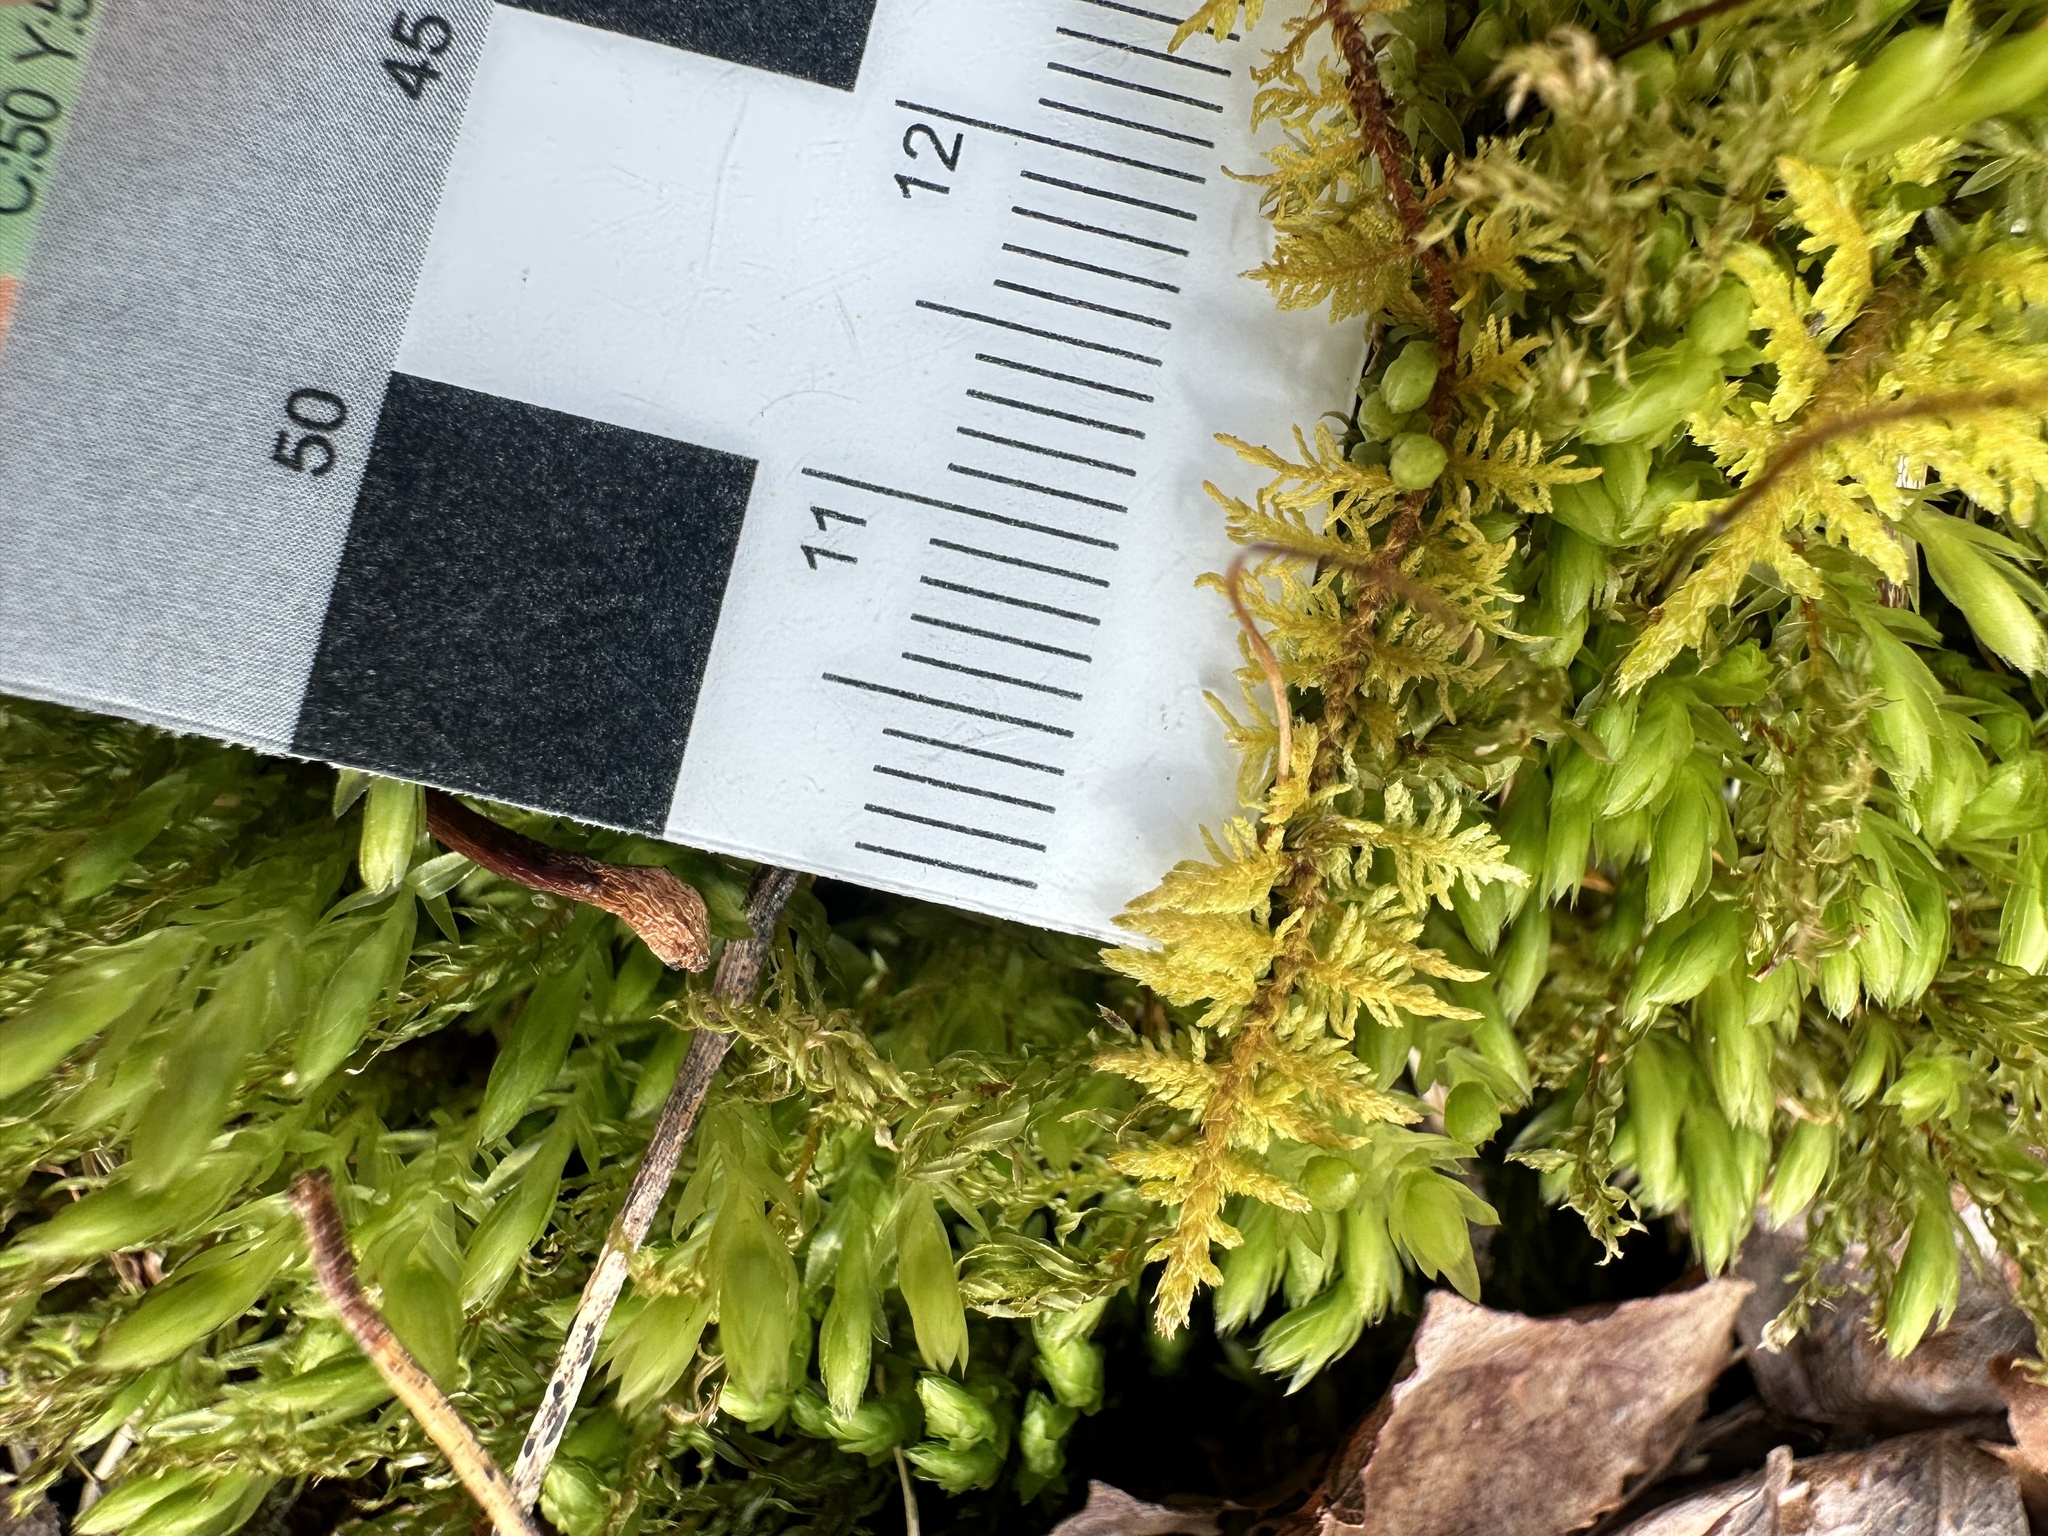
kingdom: Plantae
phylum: Bryophyta
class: Bryopsida
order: Hypnales
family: Thuidiaceae
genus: Thuidium
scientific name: Thuidium delicatulum
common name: Delicate fern moss
